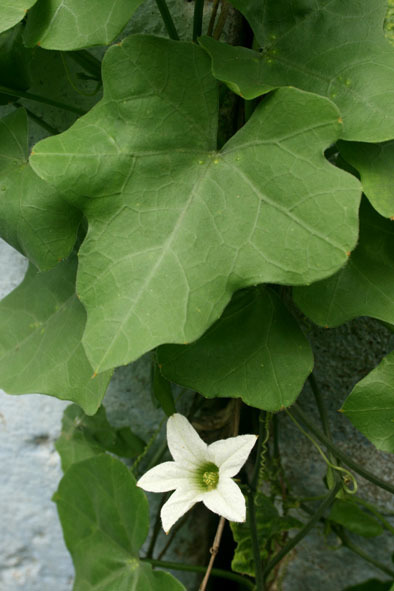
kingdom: Plantae
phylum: Tracheophyta
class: Magnoliopsida
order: Cucurbitales
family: Cucurbitaceae
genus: Coccinia
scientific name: Coccinia grandis
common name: Ivy gourd
